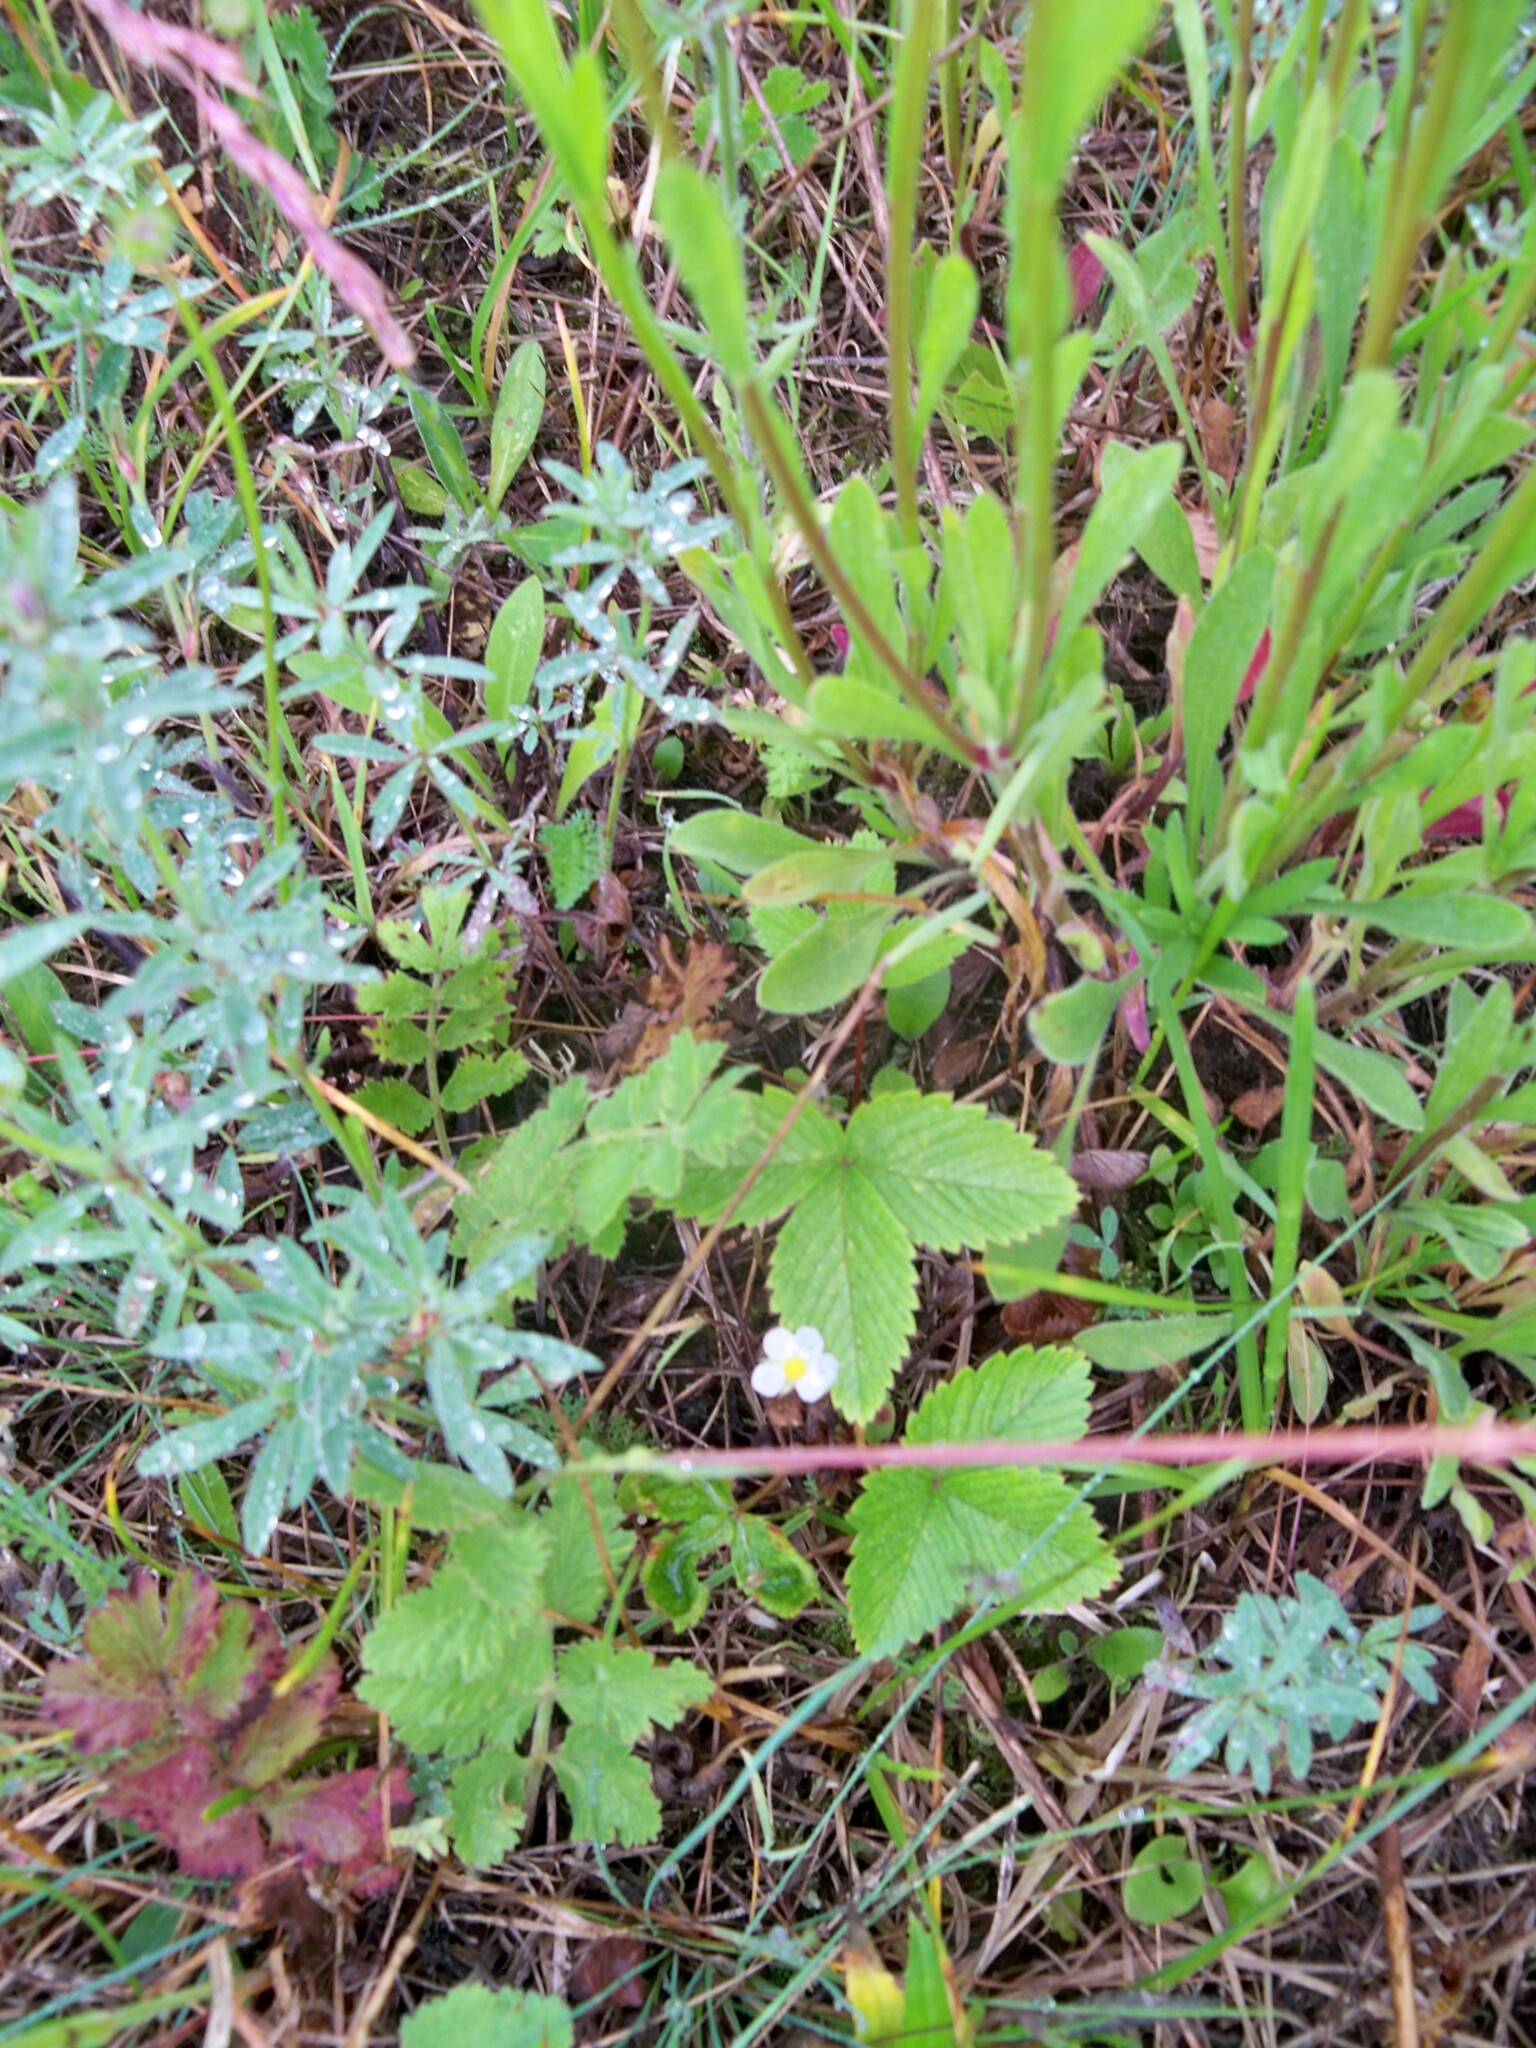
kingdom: Plantae
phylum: Tracheophyta
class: Magnoliopsida
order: Rosales
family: Rosaceae
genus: Fragaria
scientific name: Fragaria vesca
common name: Wild strawberry
